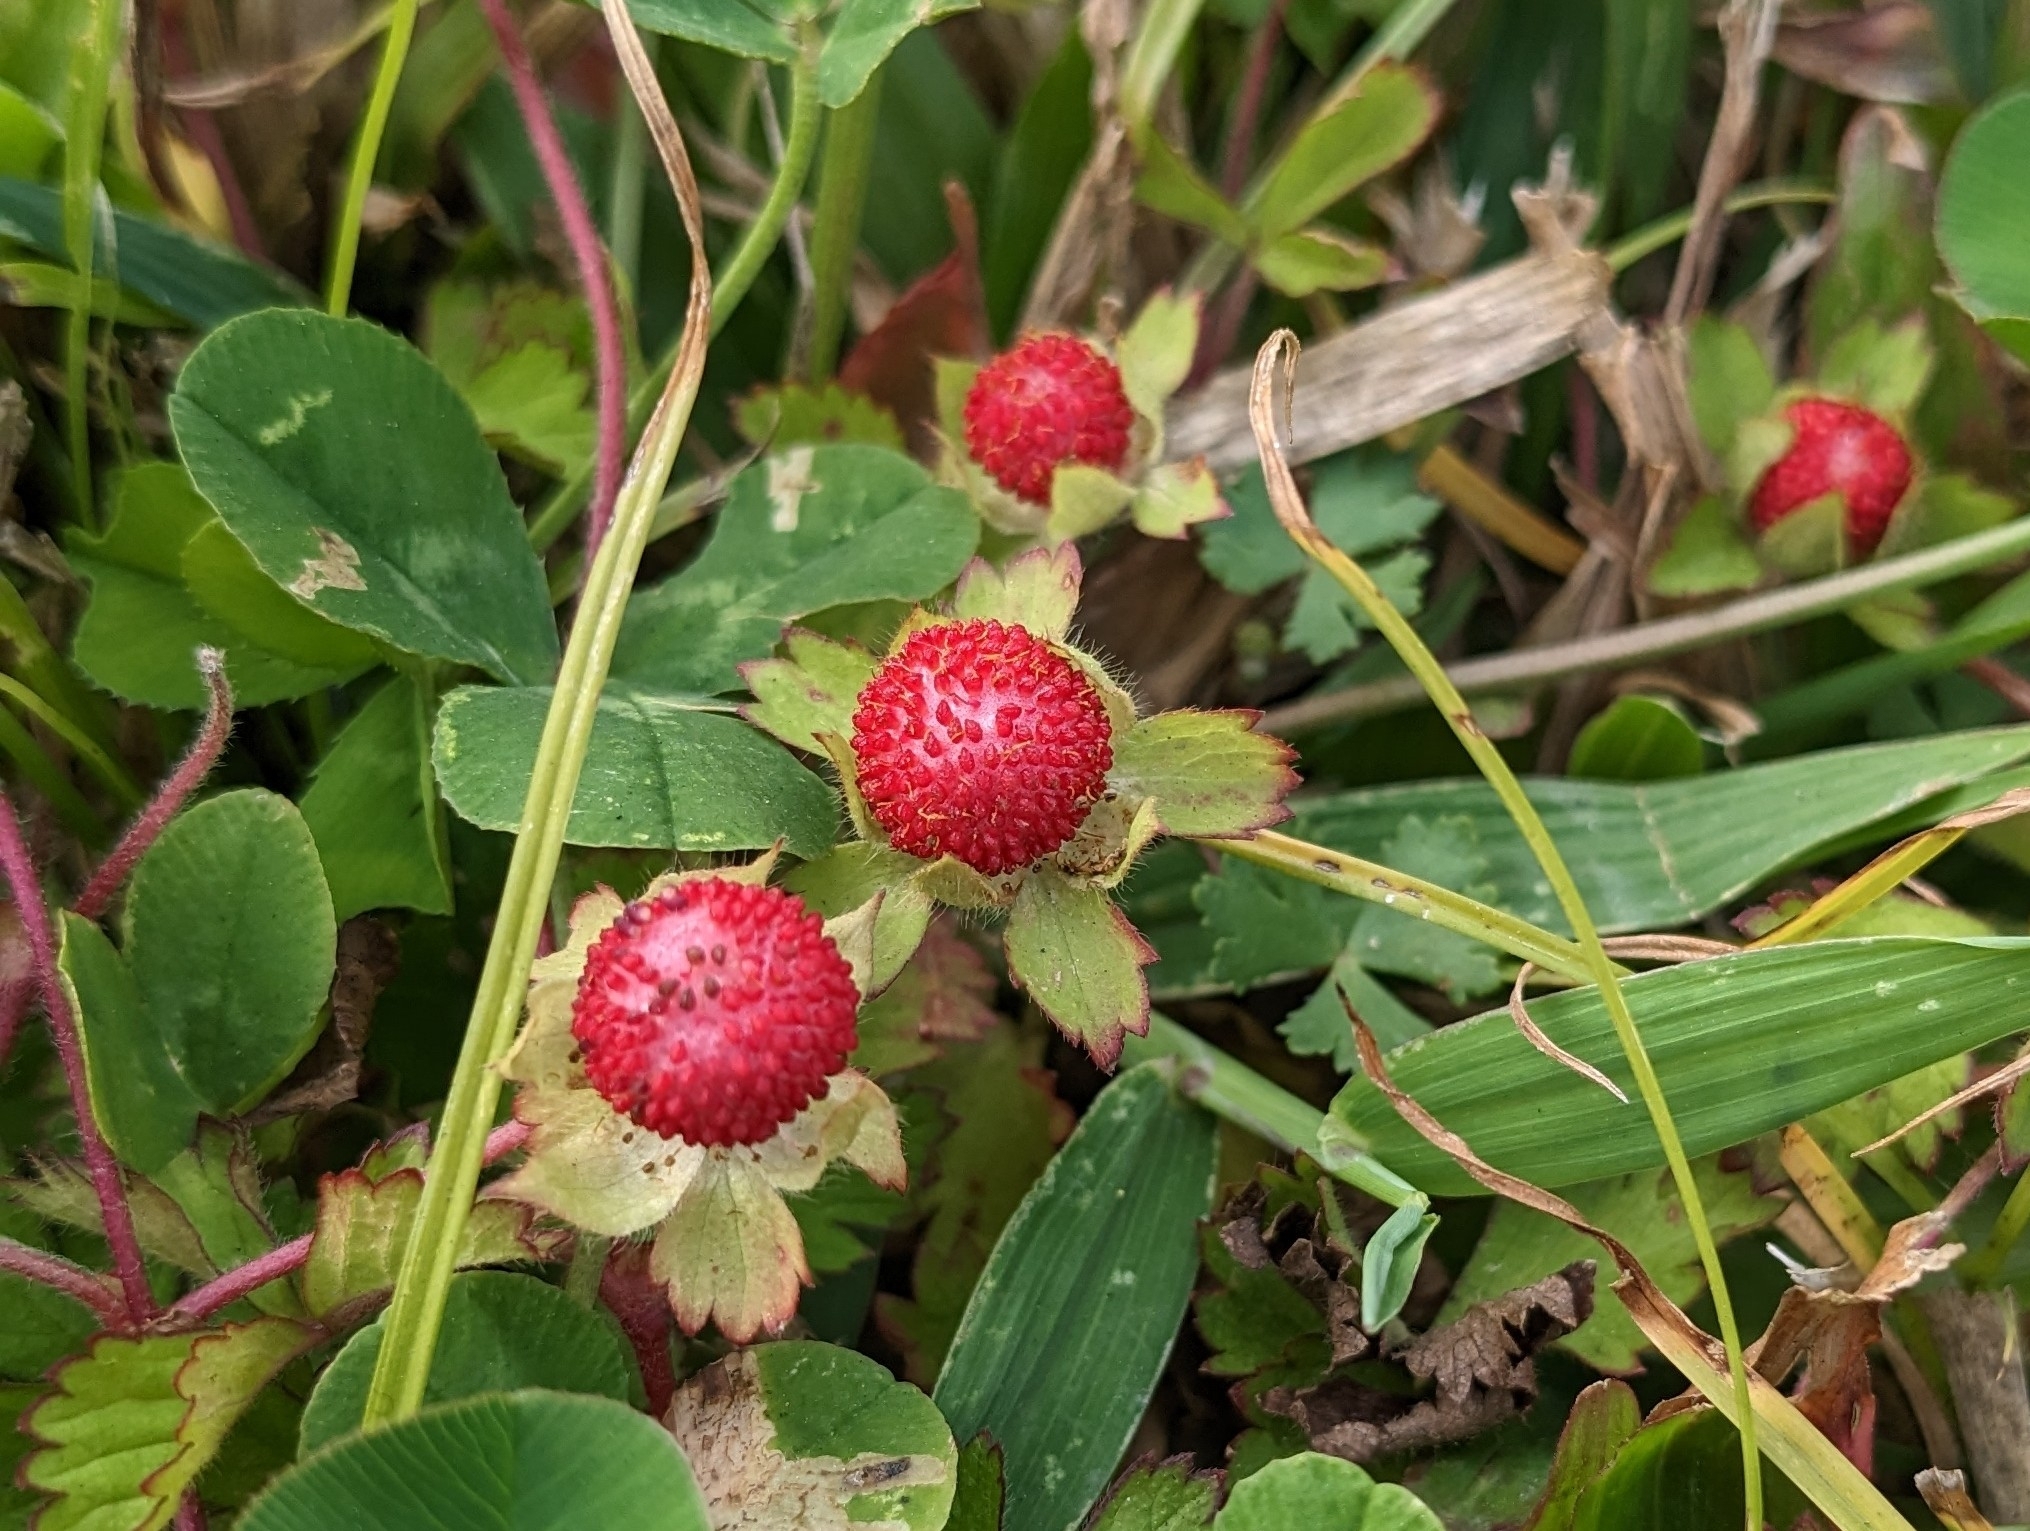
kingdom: Plantae
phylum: Tracheophyta
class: Magnoliopsida
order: Rosales
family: Rosaceae
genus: Potentilla
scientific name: Potentilla wallichiana
